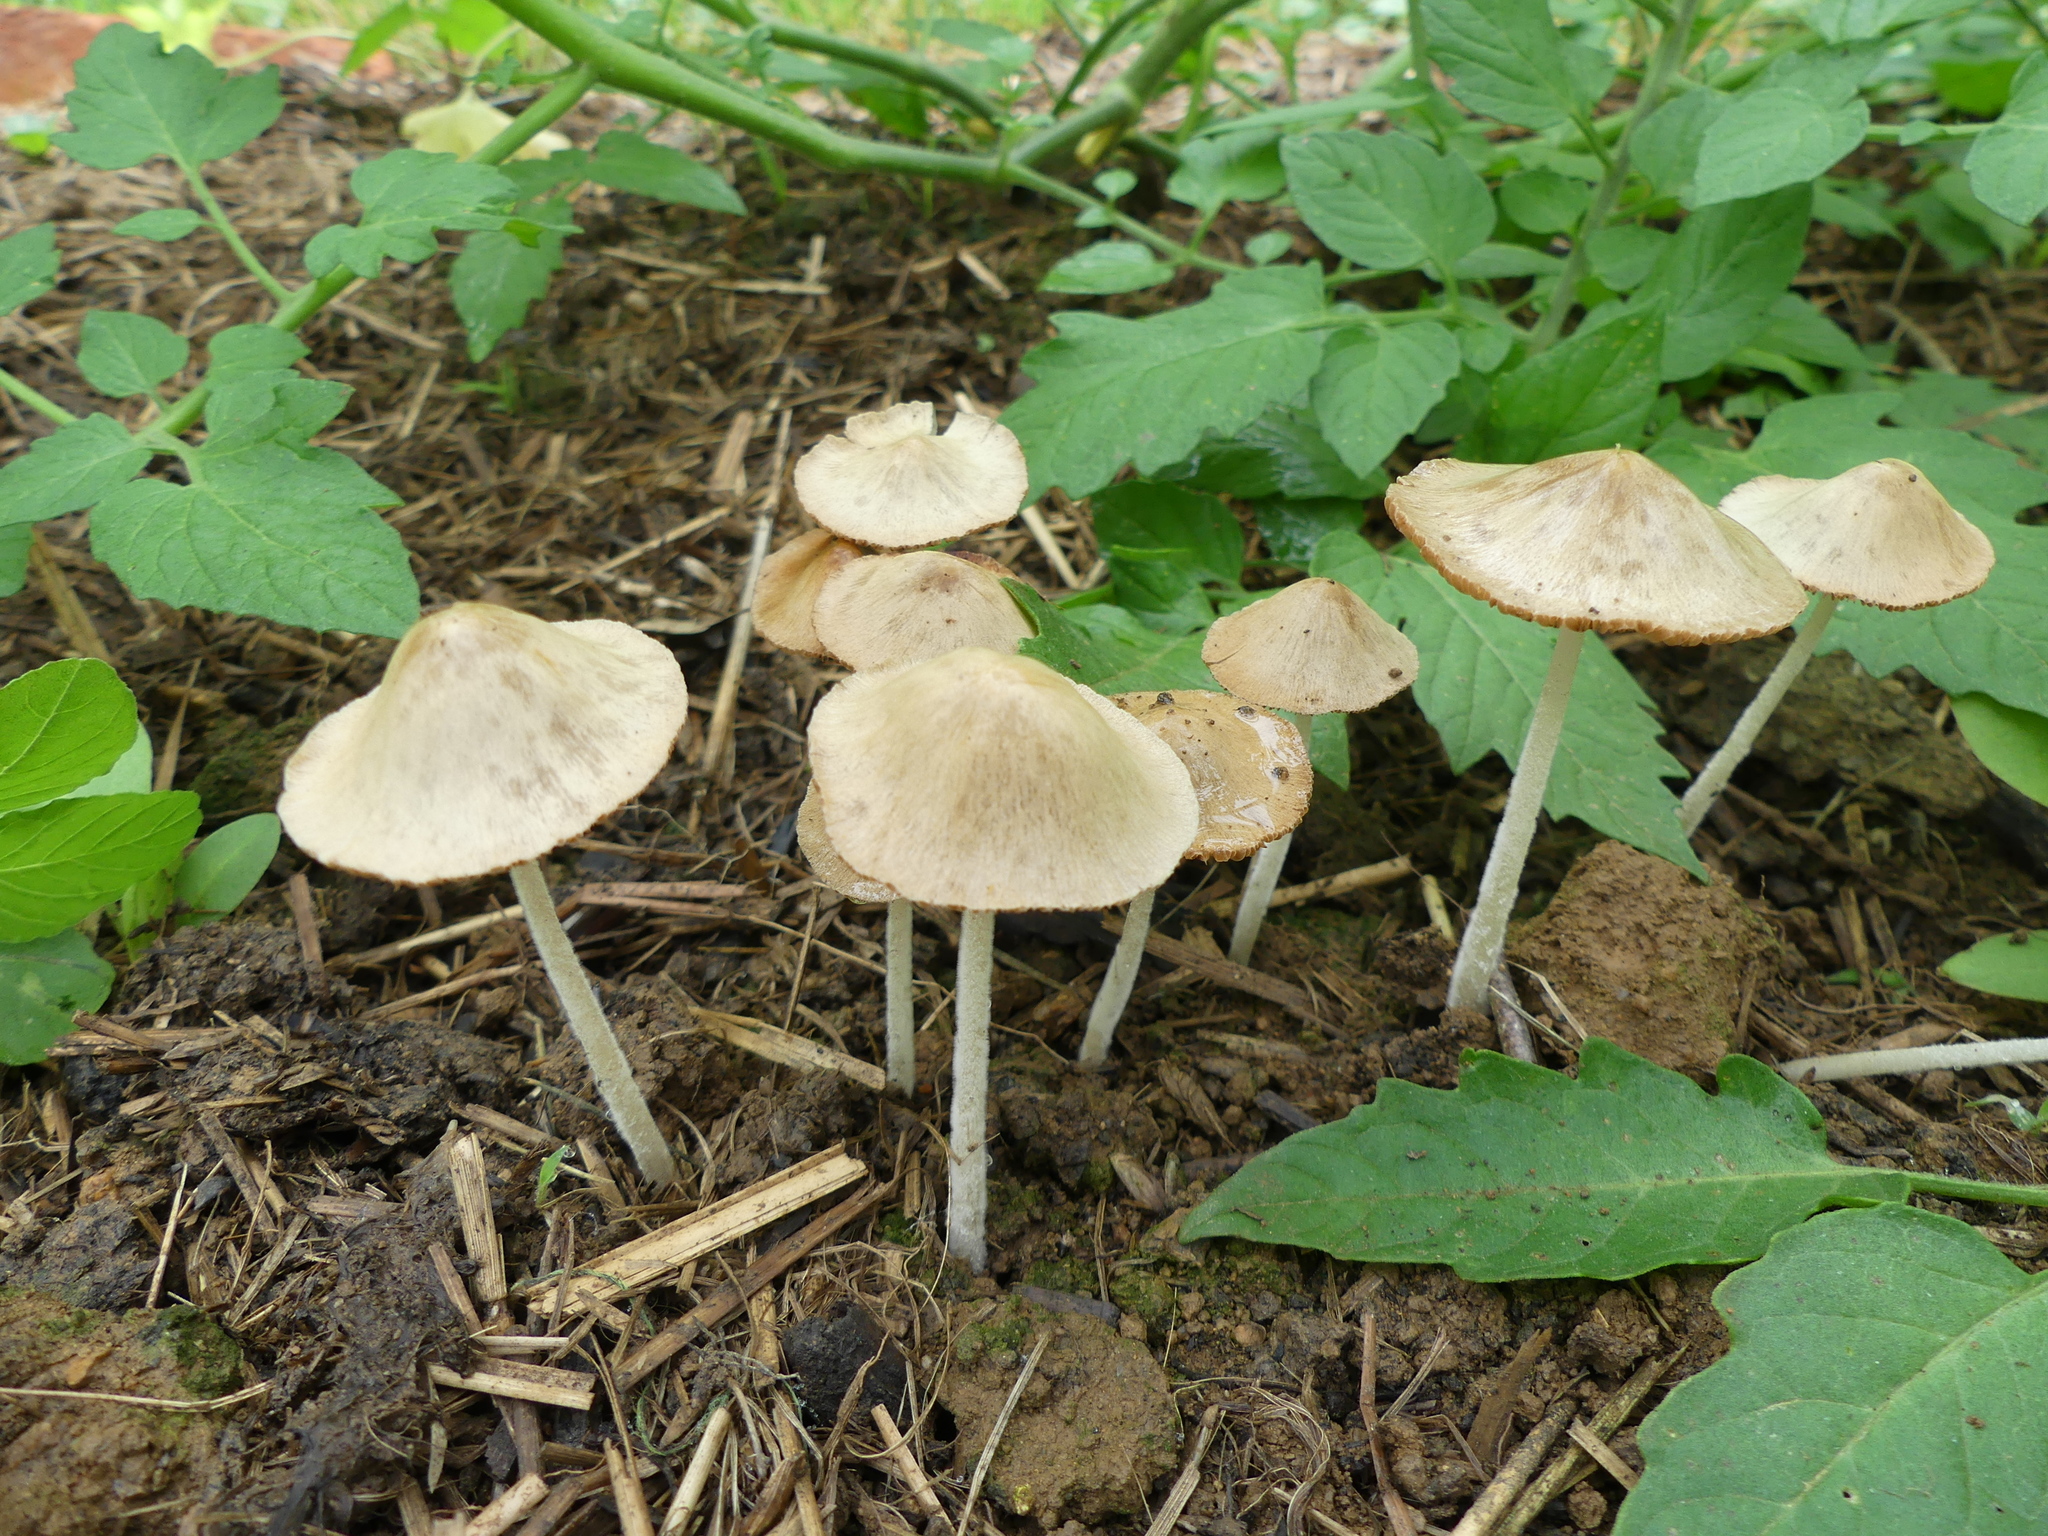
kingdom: Fungi
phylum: Basidiomycota
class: Agaricomycetes
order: Agaricales
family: Bolbitiaceae
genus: Conocybe
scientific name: Conocybe apala
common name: Milky conecap
